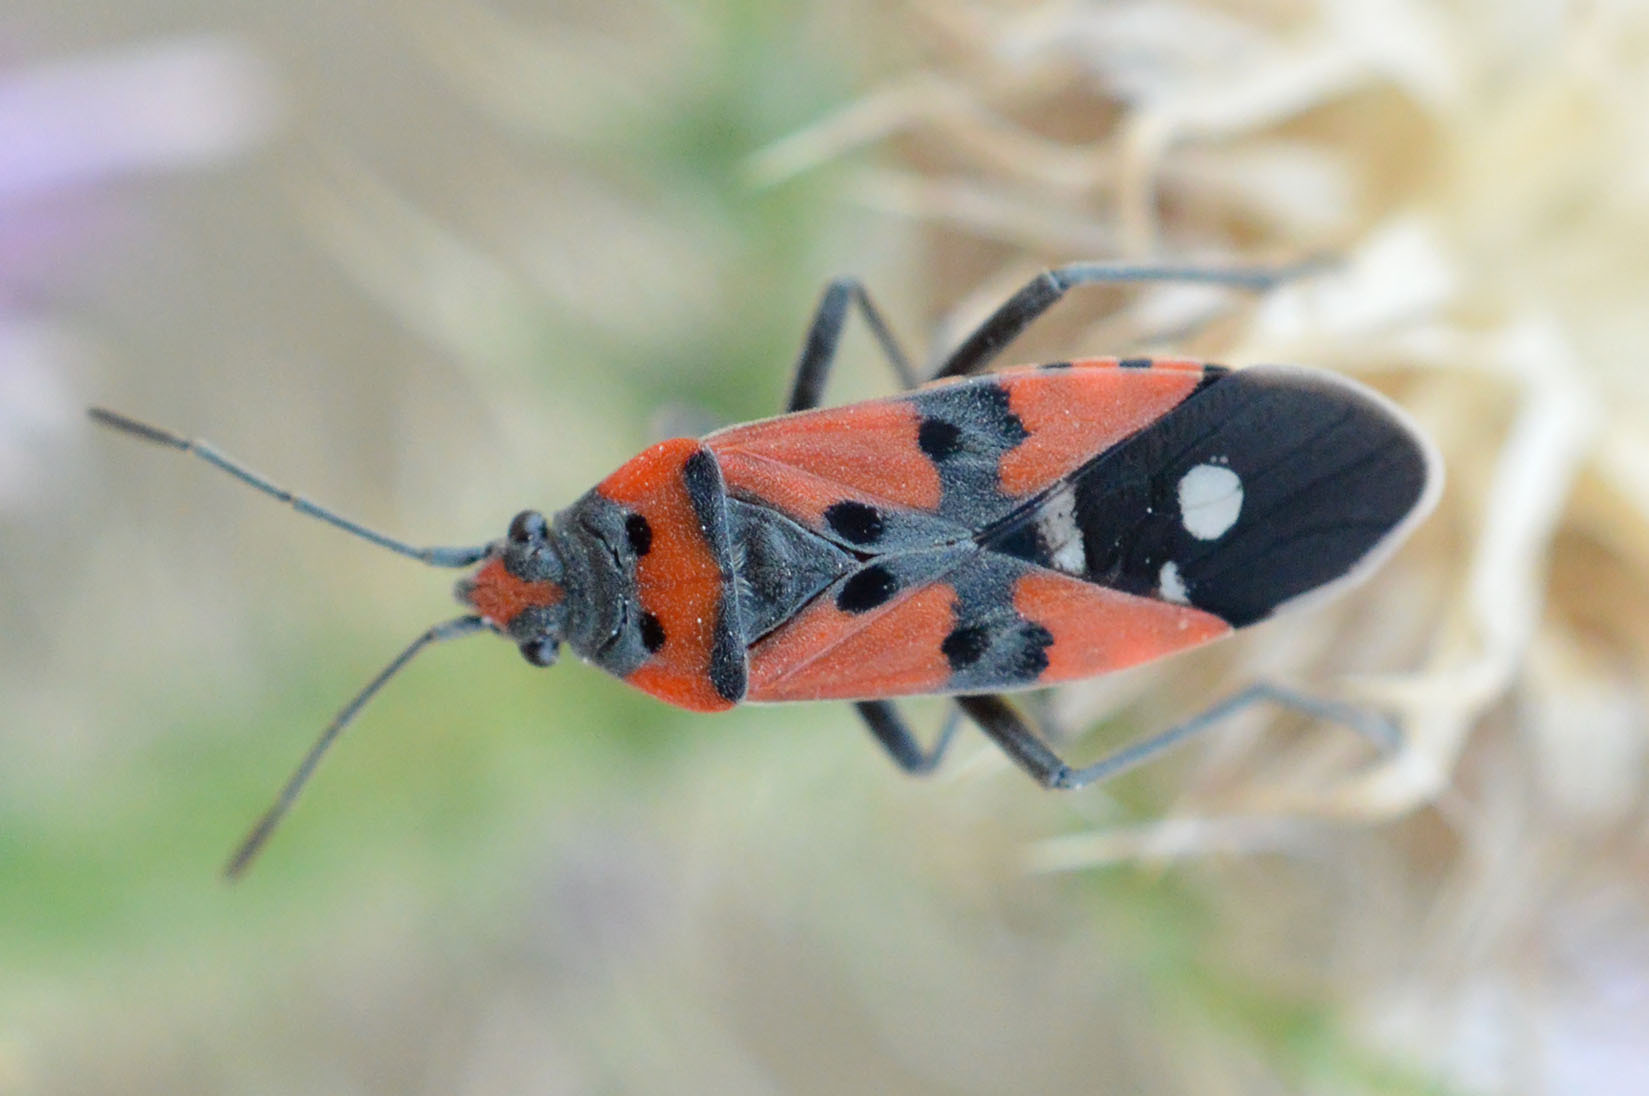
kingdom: Animalia
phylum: Arthropoda
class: Insecta
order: Hemiptera
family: Lygaeidae
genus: Lygaeus
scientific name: Lygaeus equestris
